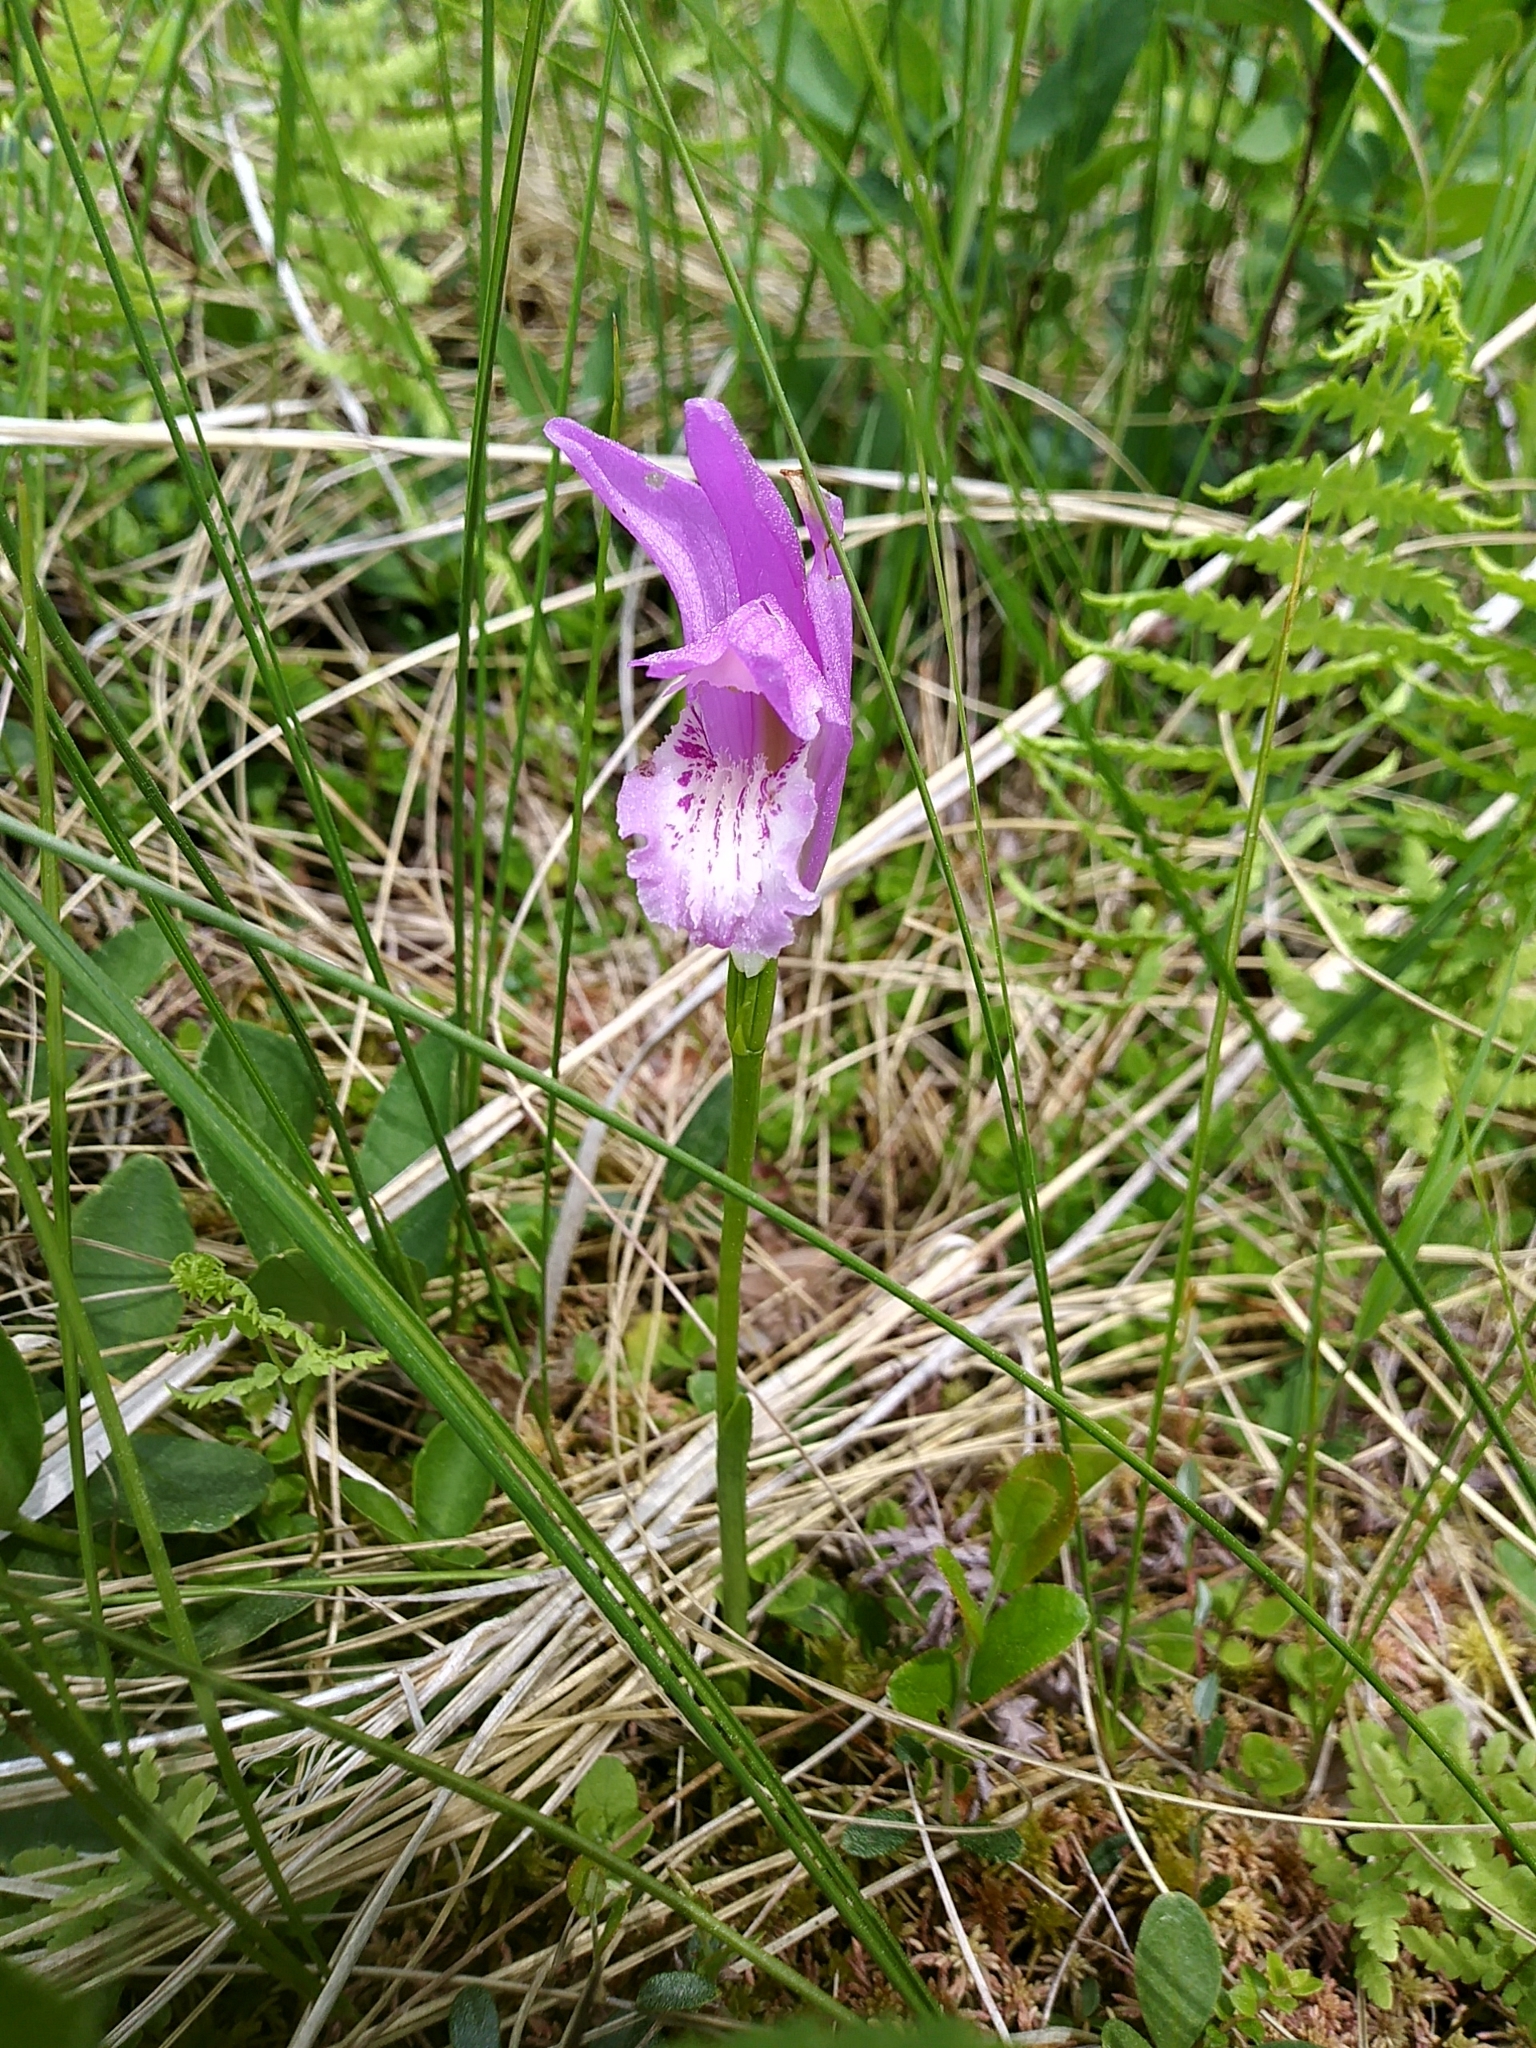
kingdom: Plantae
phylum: Tracheophyta
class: Liliopsida
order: Asparagales
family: Orchidaceae
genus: Arethusa
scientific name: Arethusa bulbosa
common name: Arethusa
